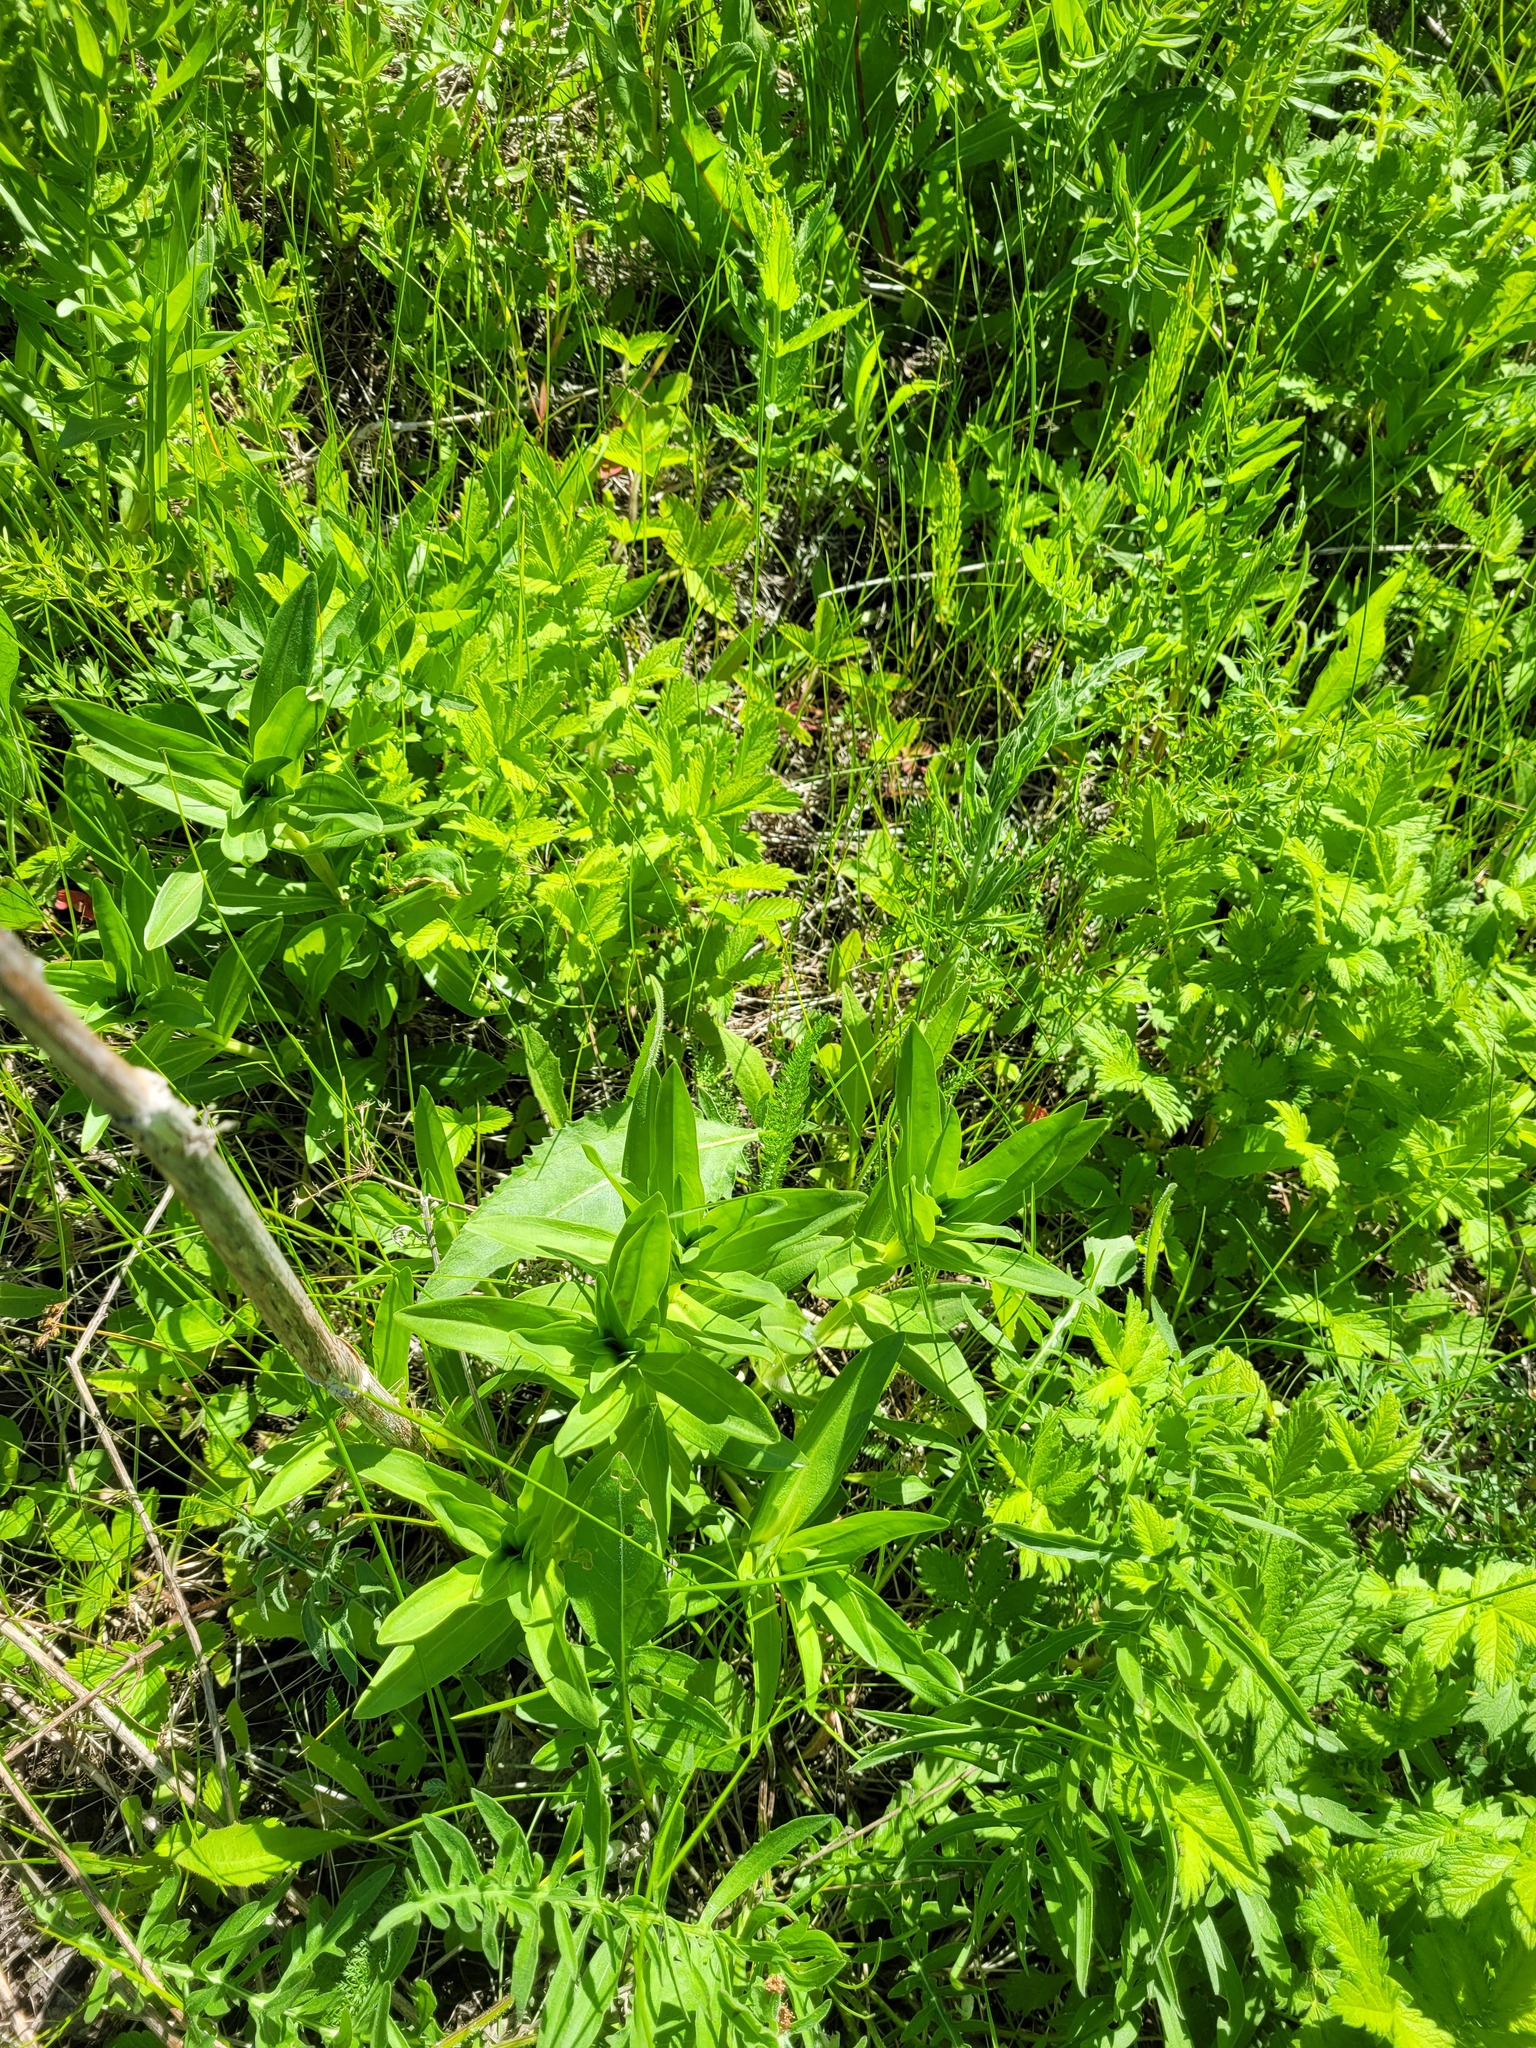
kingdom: Plantae
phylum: Tracheophyta
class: Magnoliopsida
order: Gentianales
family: Gentianaceae
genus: Gentiana
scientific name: Gentiana cruciata
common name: Cross gentian
